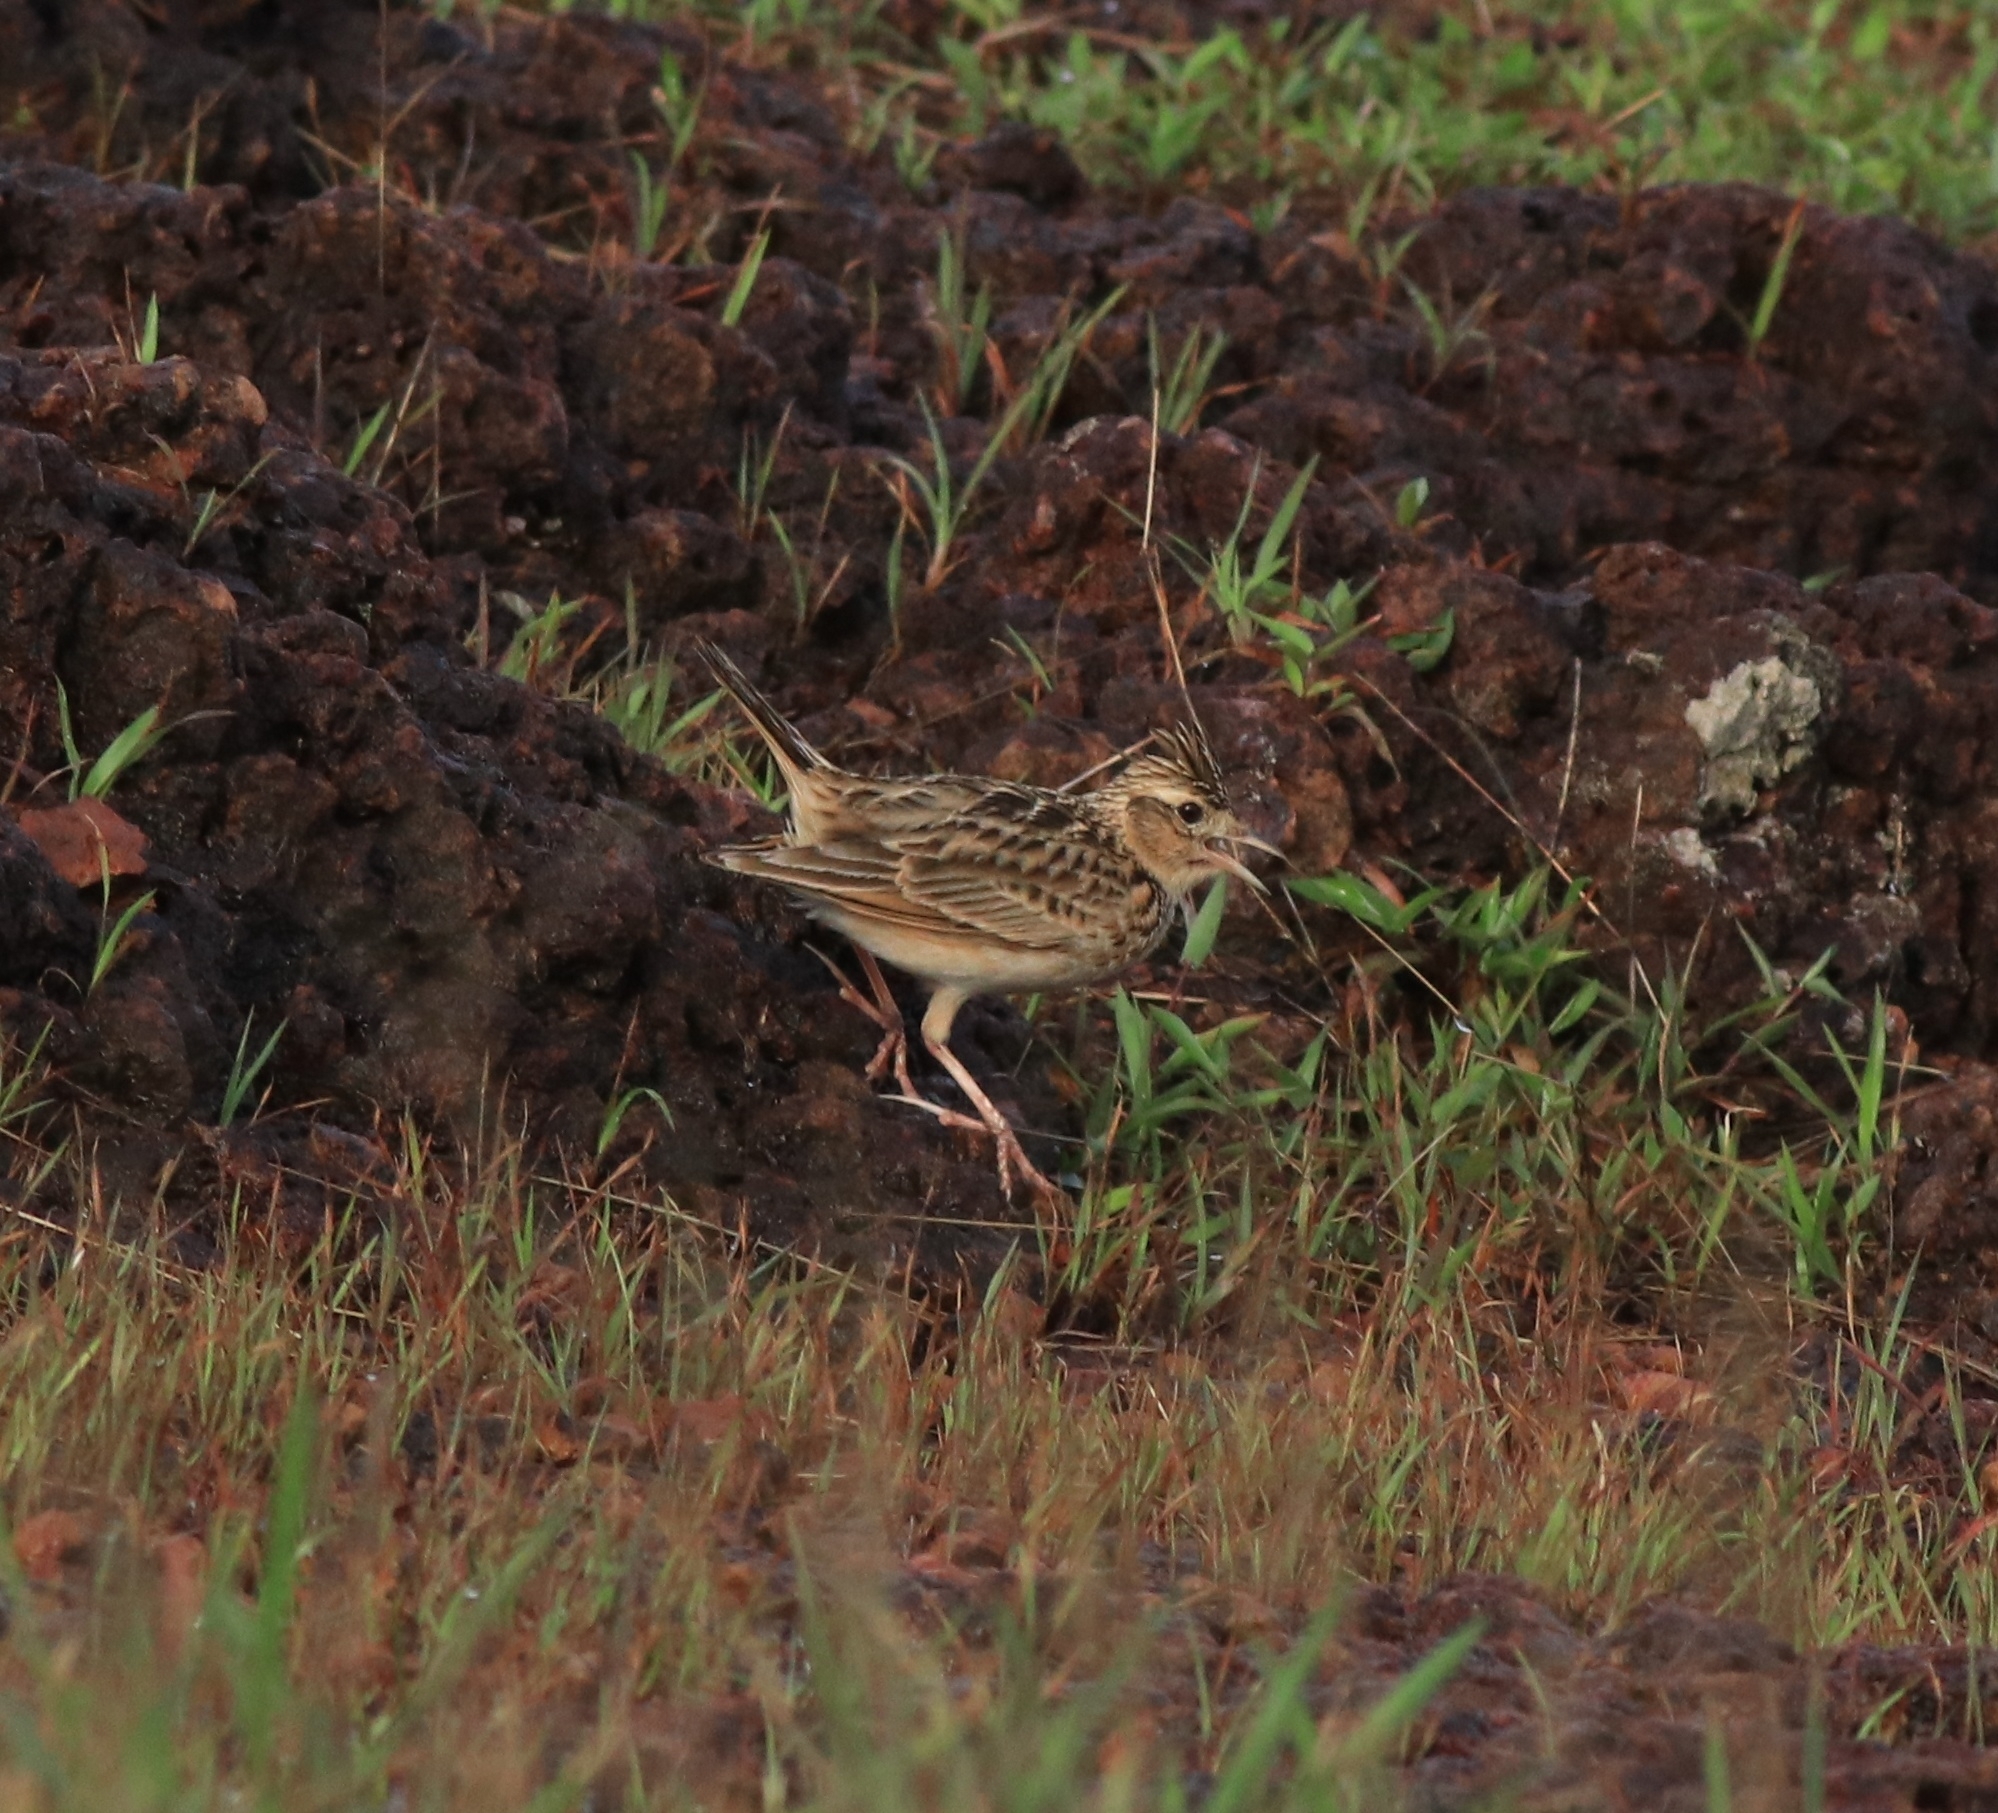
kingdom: Animalia
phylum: Chordata
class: Aves
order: Passeriformes
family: Alaudidae
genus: Alauda
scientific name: Alauda gulgula
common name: Oriental skylark
